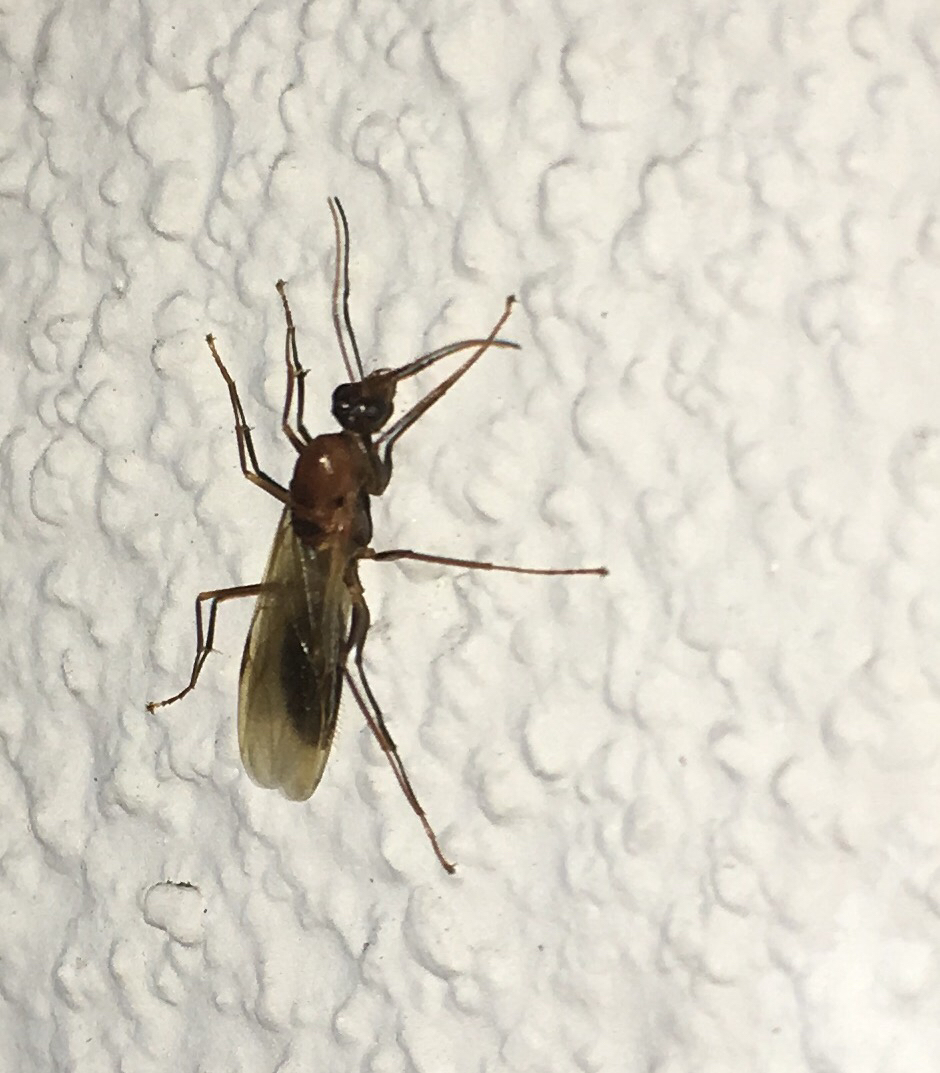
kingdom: Animalia
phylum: Arthropoda
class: Insecta
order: Hymenoptera
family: Formicidae
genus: Camponotus
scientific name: Camponotus variegatus
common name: Hawaiian carpenter ant
